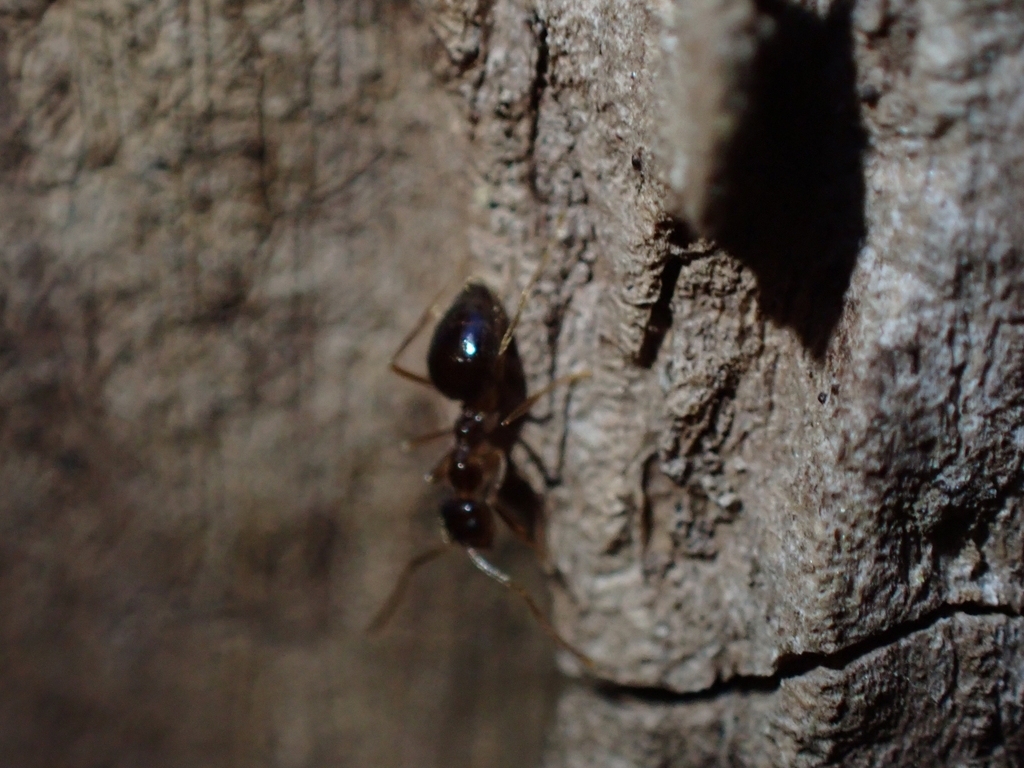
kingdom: Animalia
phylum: Arthropoda
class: Insecta
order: Hymenoptera
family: Formicidae
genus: Prenolepis
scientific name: Prenolepis nitens
